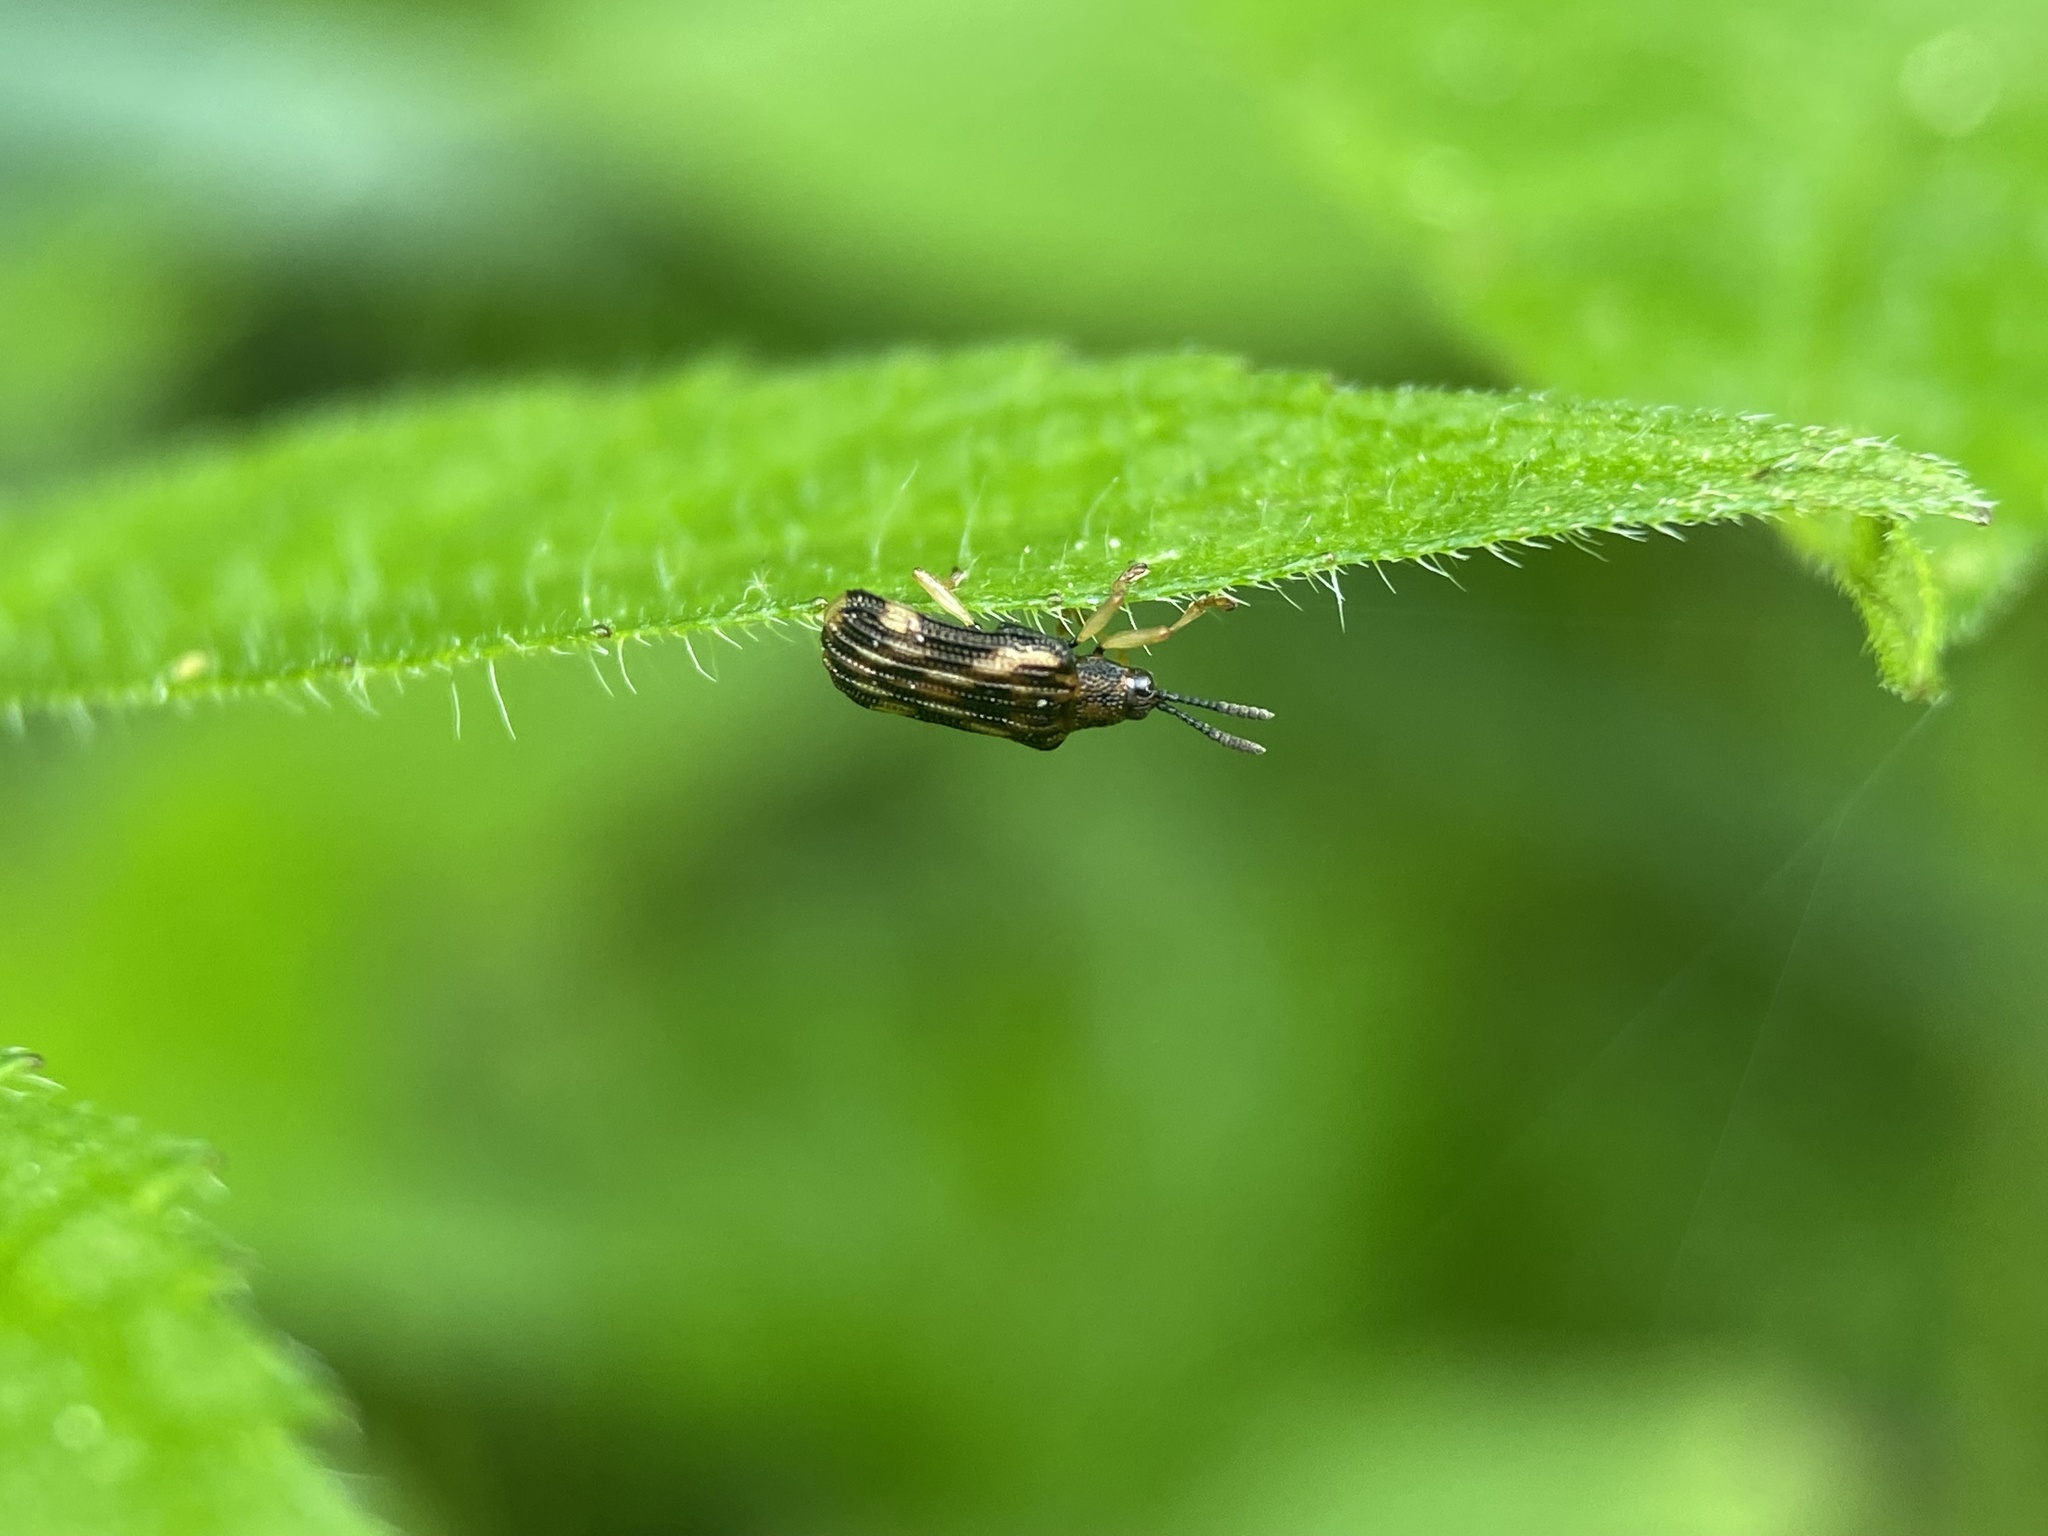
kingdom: Animalia
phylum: Arthropoda
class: Insecta
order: Coleoptera
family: Chrysomelidae
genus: Sumitrosis
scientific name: Sumitrosis inaequalis
